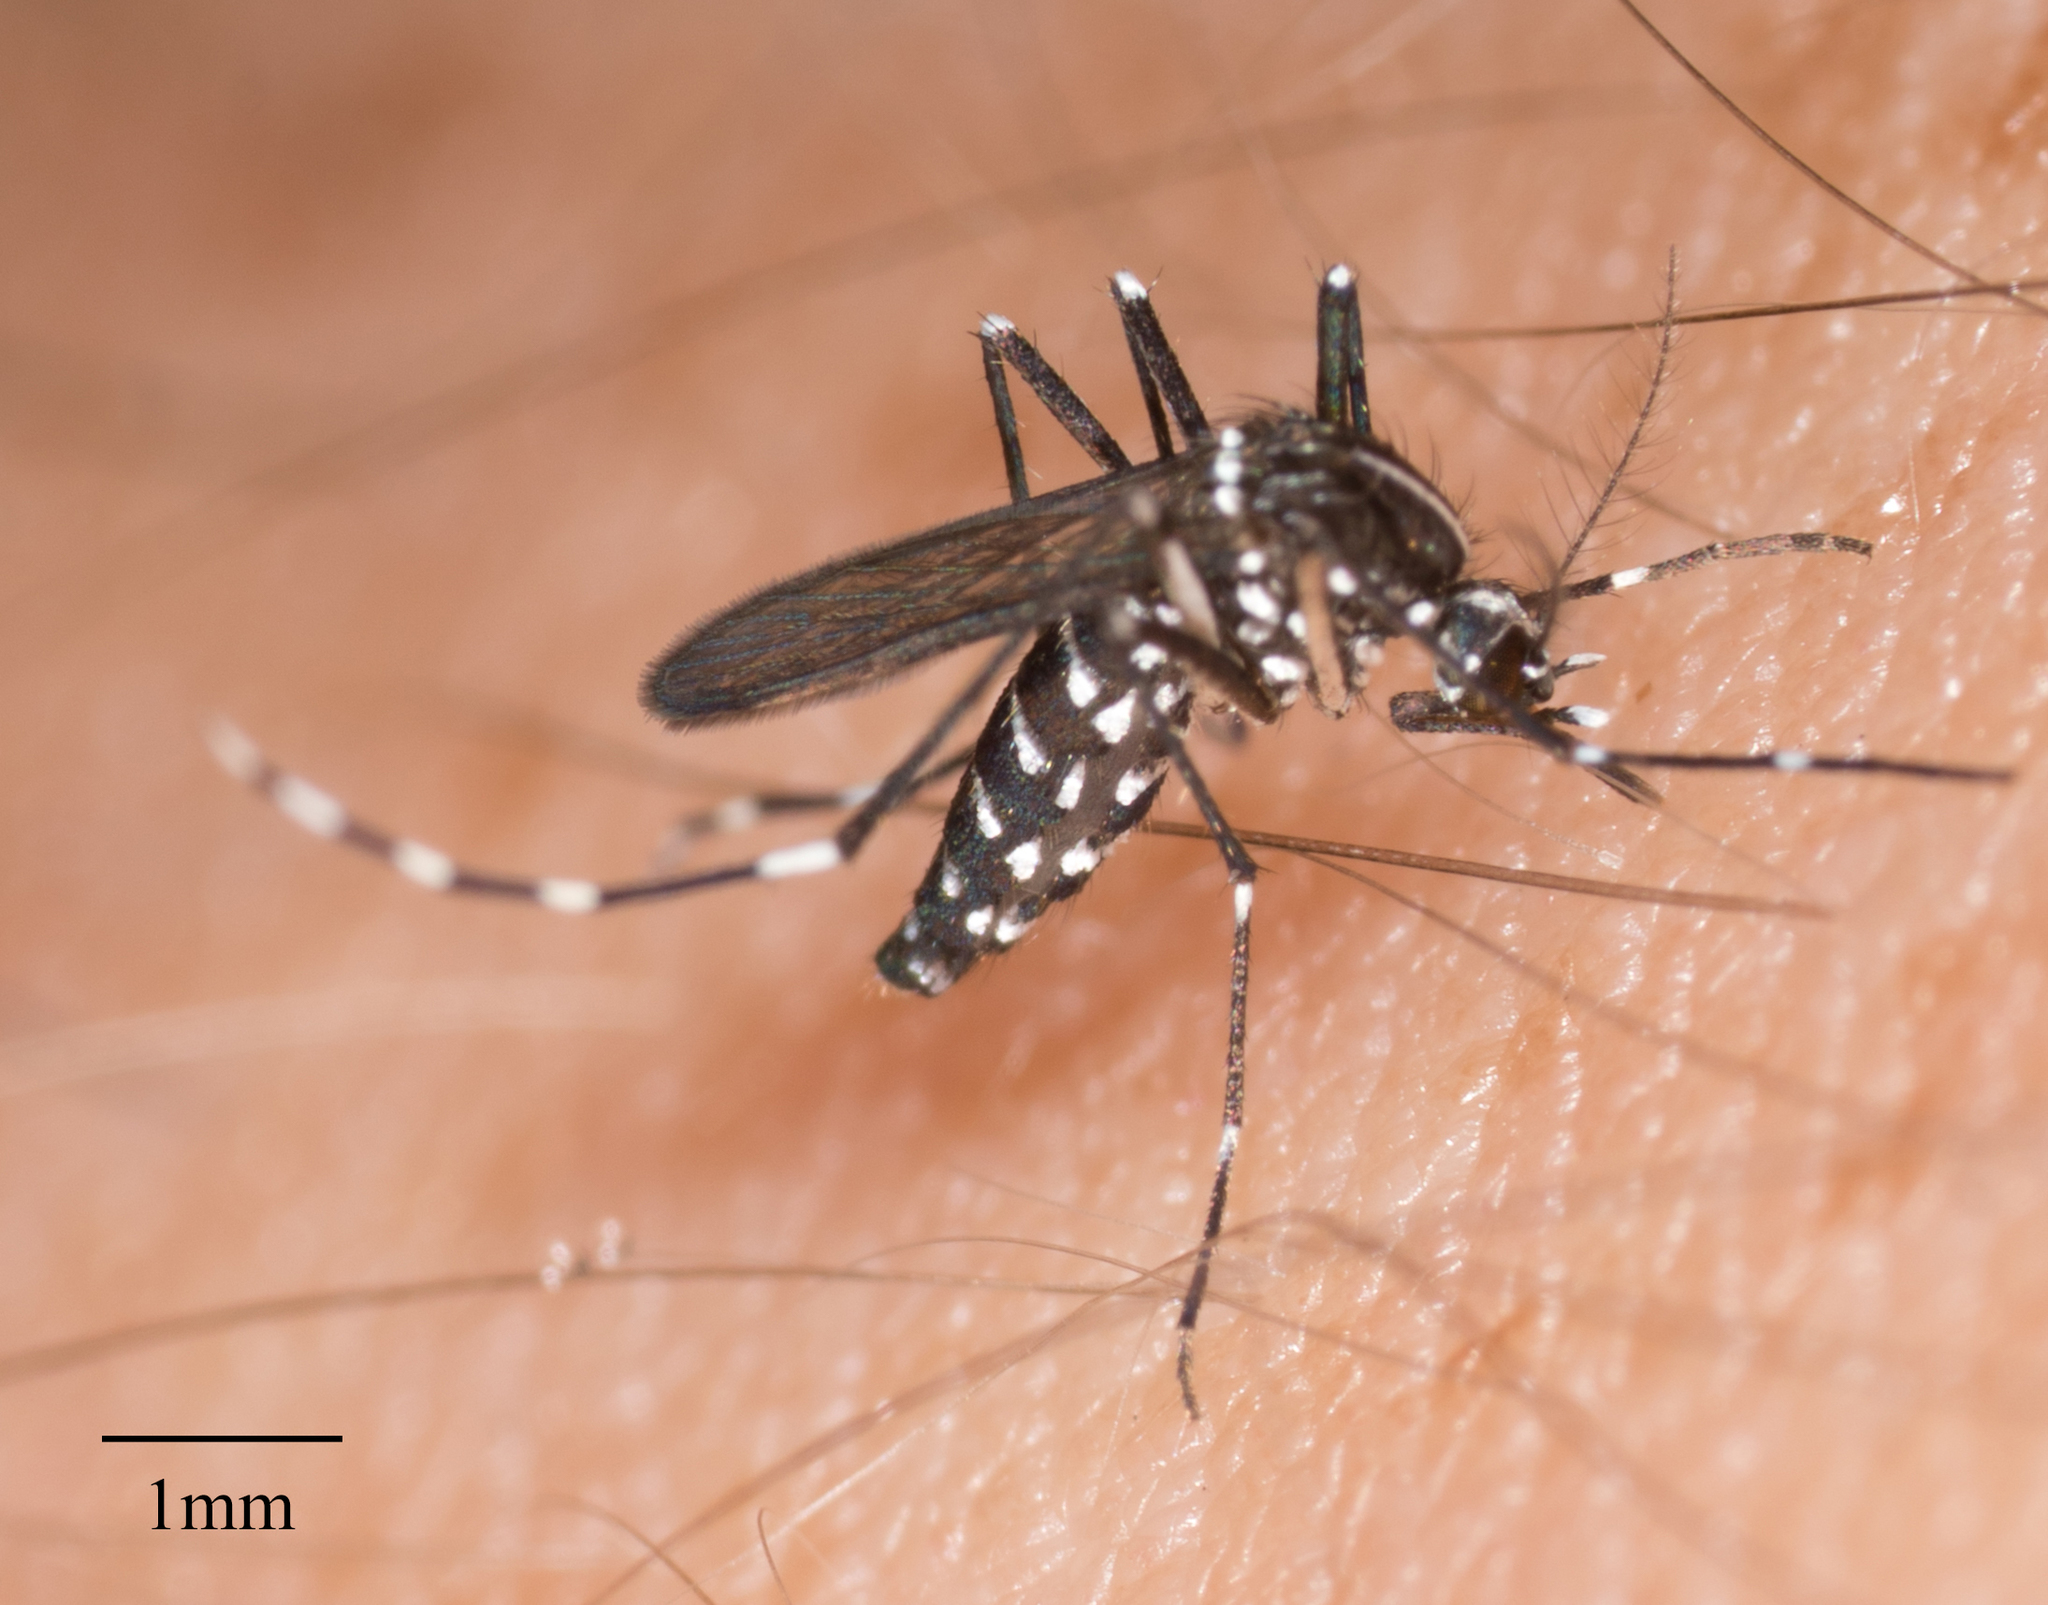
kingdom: Animalia
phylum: Arthropoda
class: Insecta
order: Diptera
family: Culicidae
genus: Aedes
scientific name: Aedes albopictus
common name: Tiger mosquito
